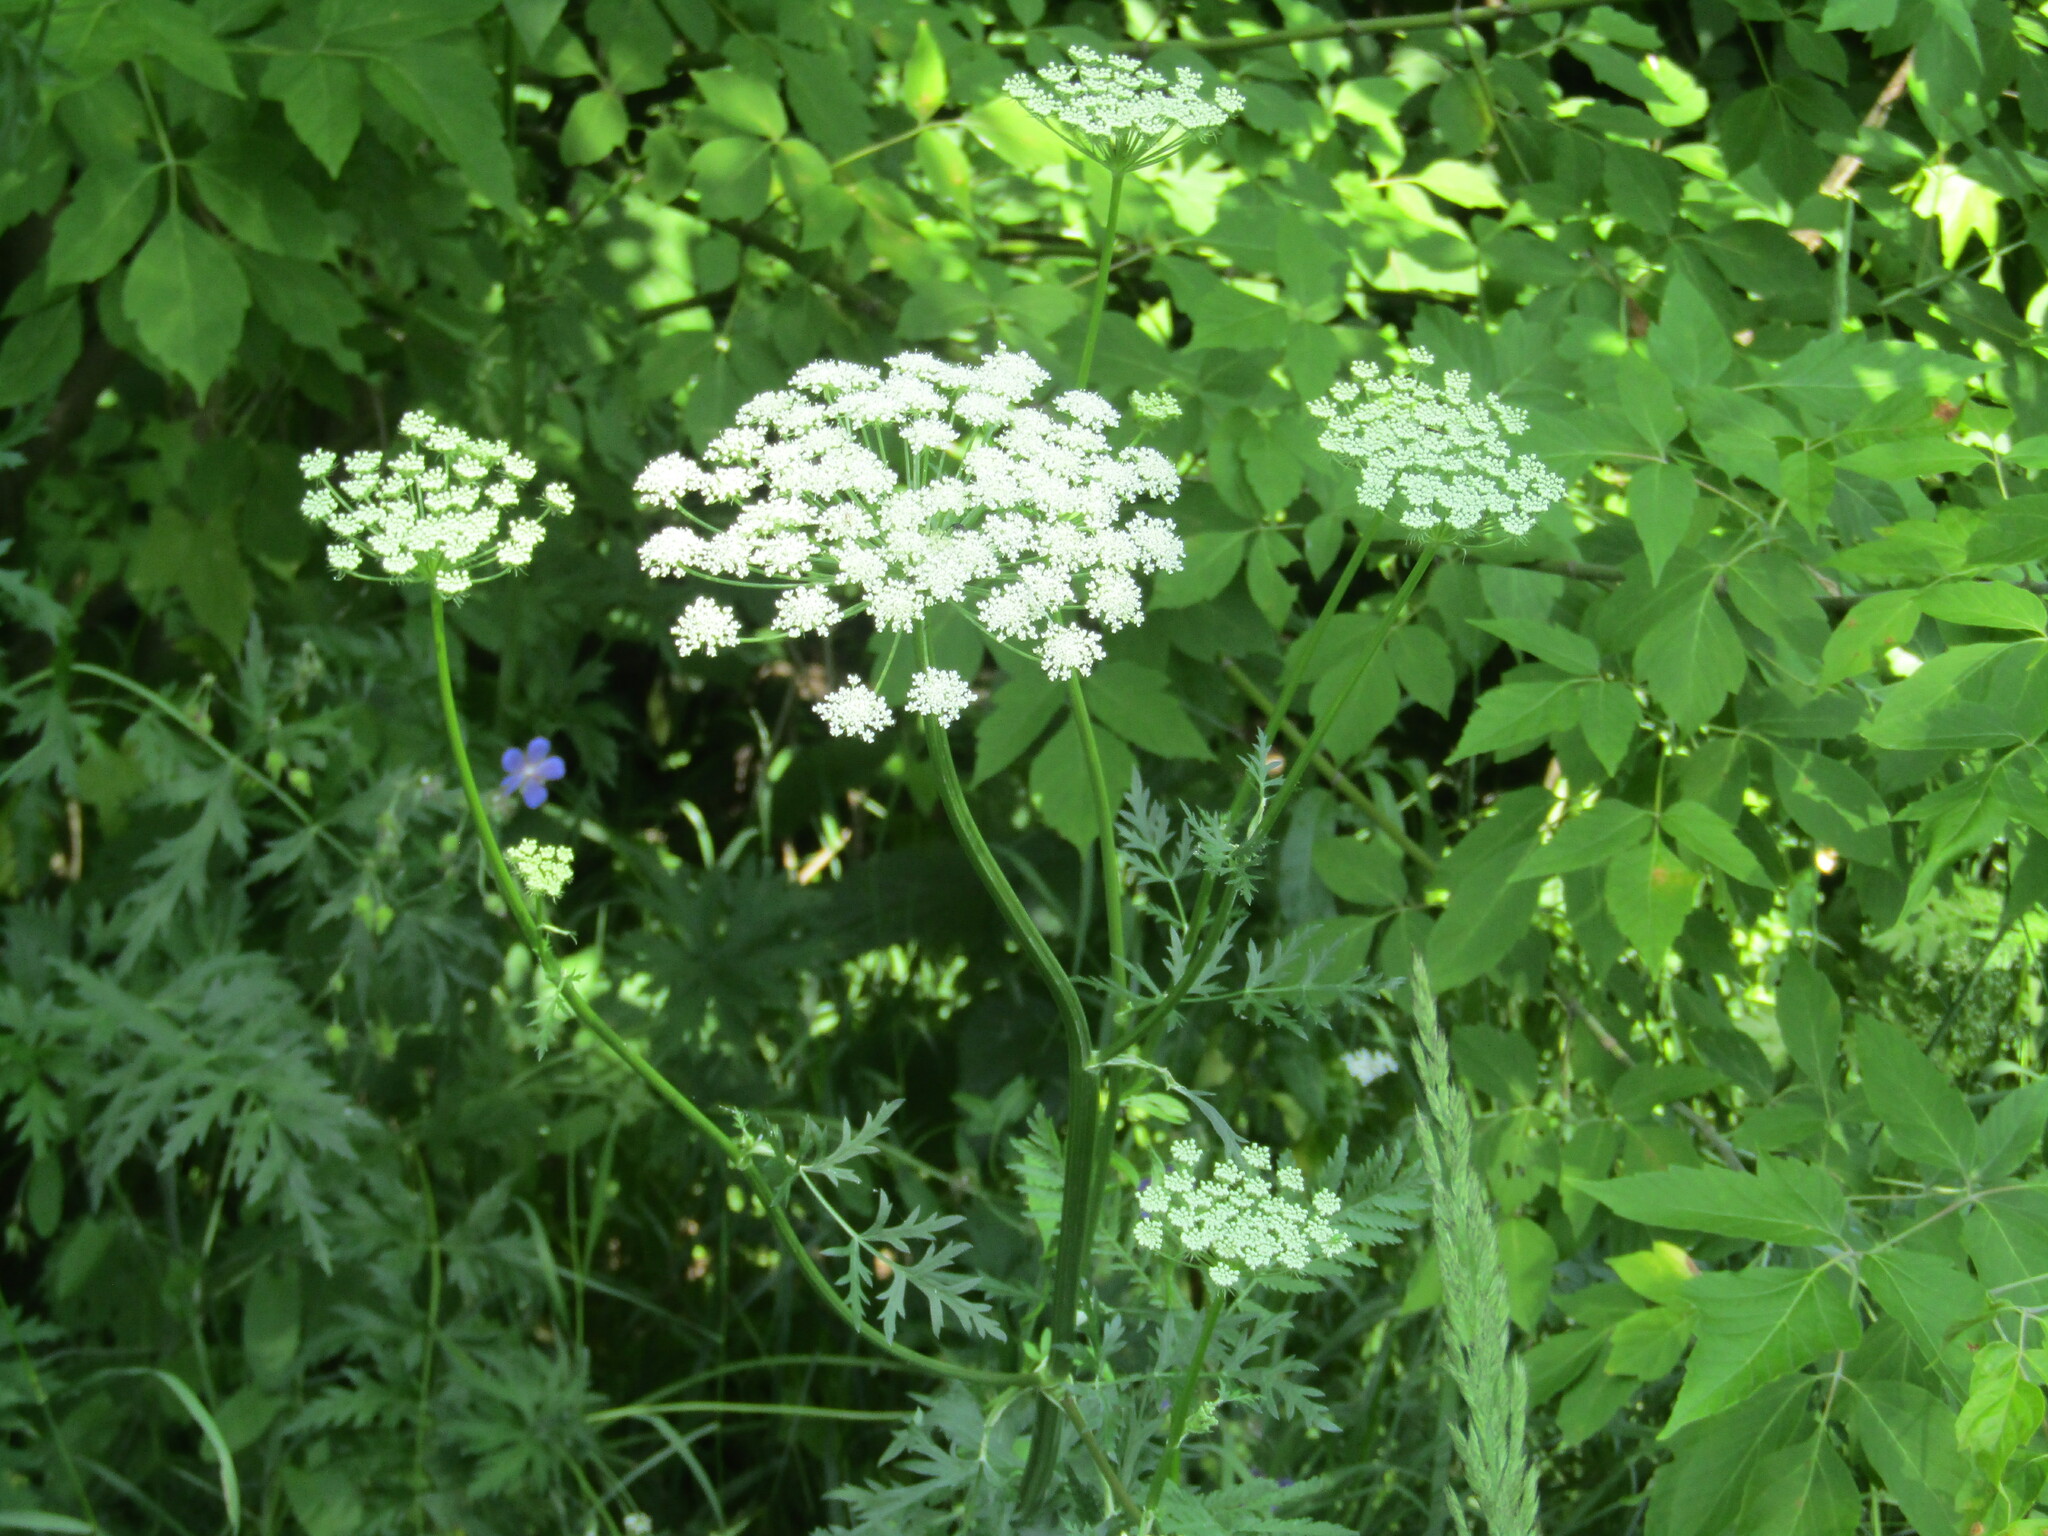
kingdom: Plantae
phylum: Tracheophyta
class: Magnoliopsida
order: Apiales
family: Apiaceae
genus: Seseli
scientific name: Seseli libanotis
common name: Mooncarrot
